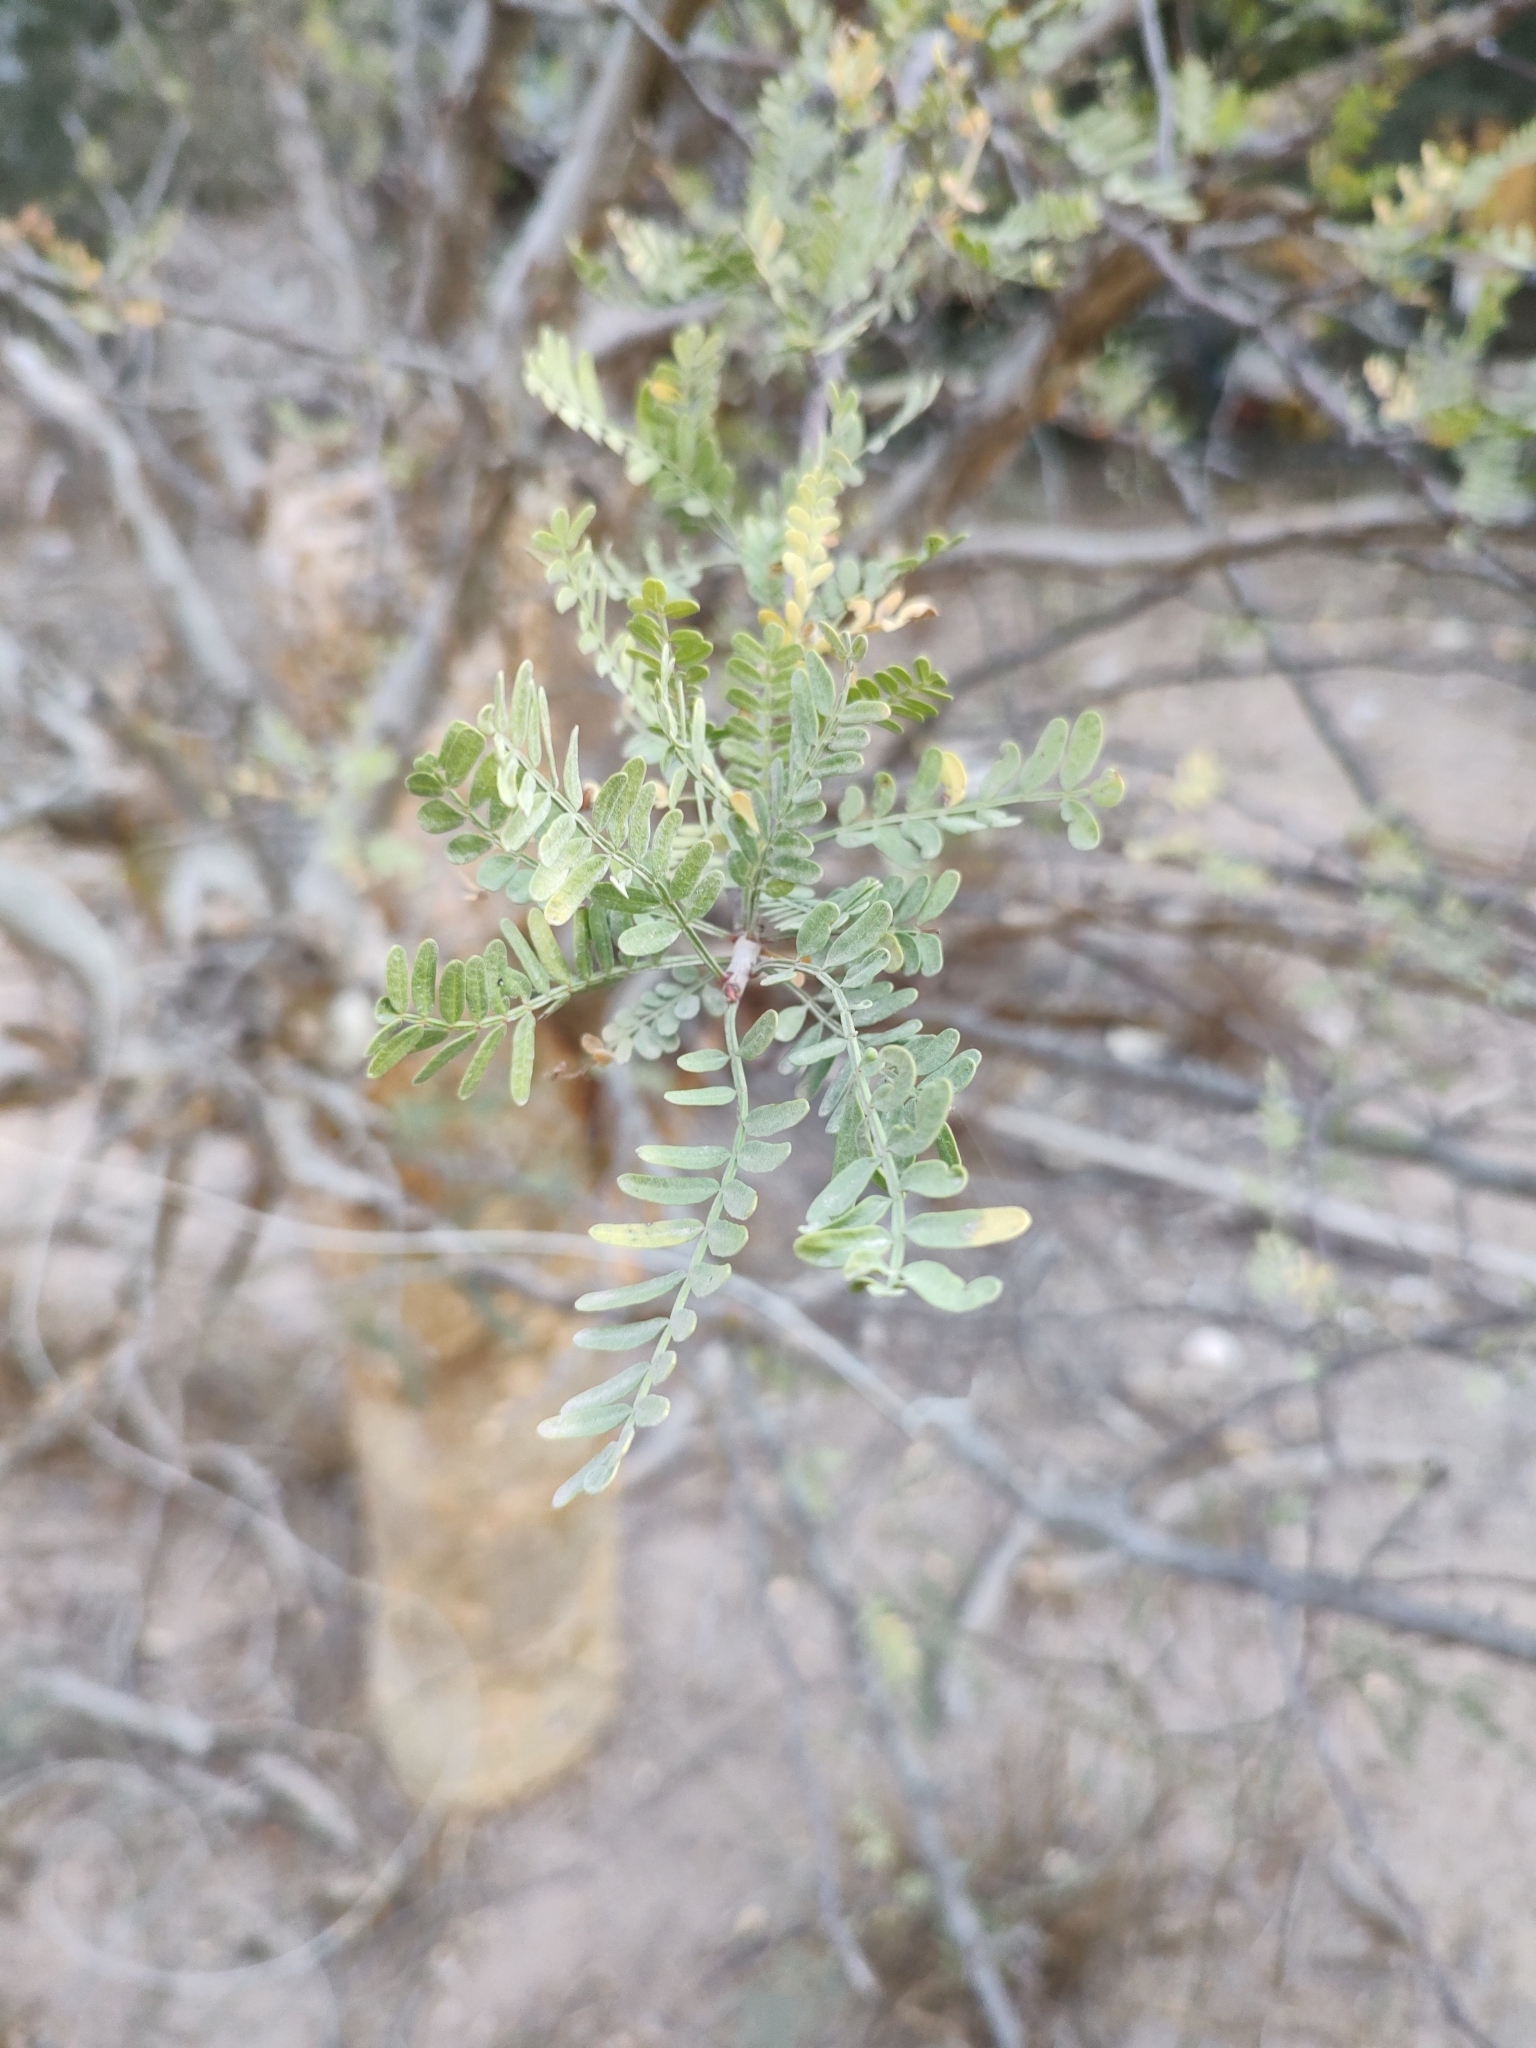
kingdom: Plantae
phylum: Tracheophyta
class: Magnoliopsida
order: Sapindales
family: Burseraceae
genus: Bursera
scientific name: Bursera microphylla
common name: Elephant tree
